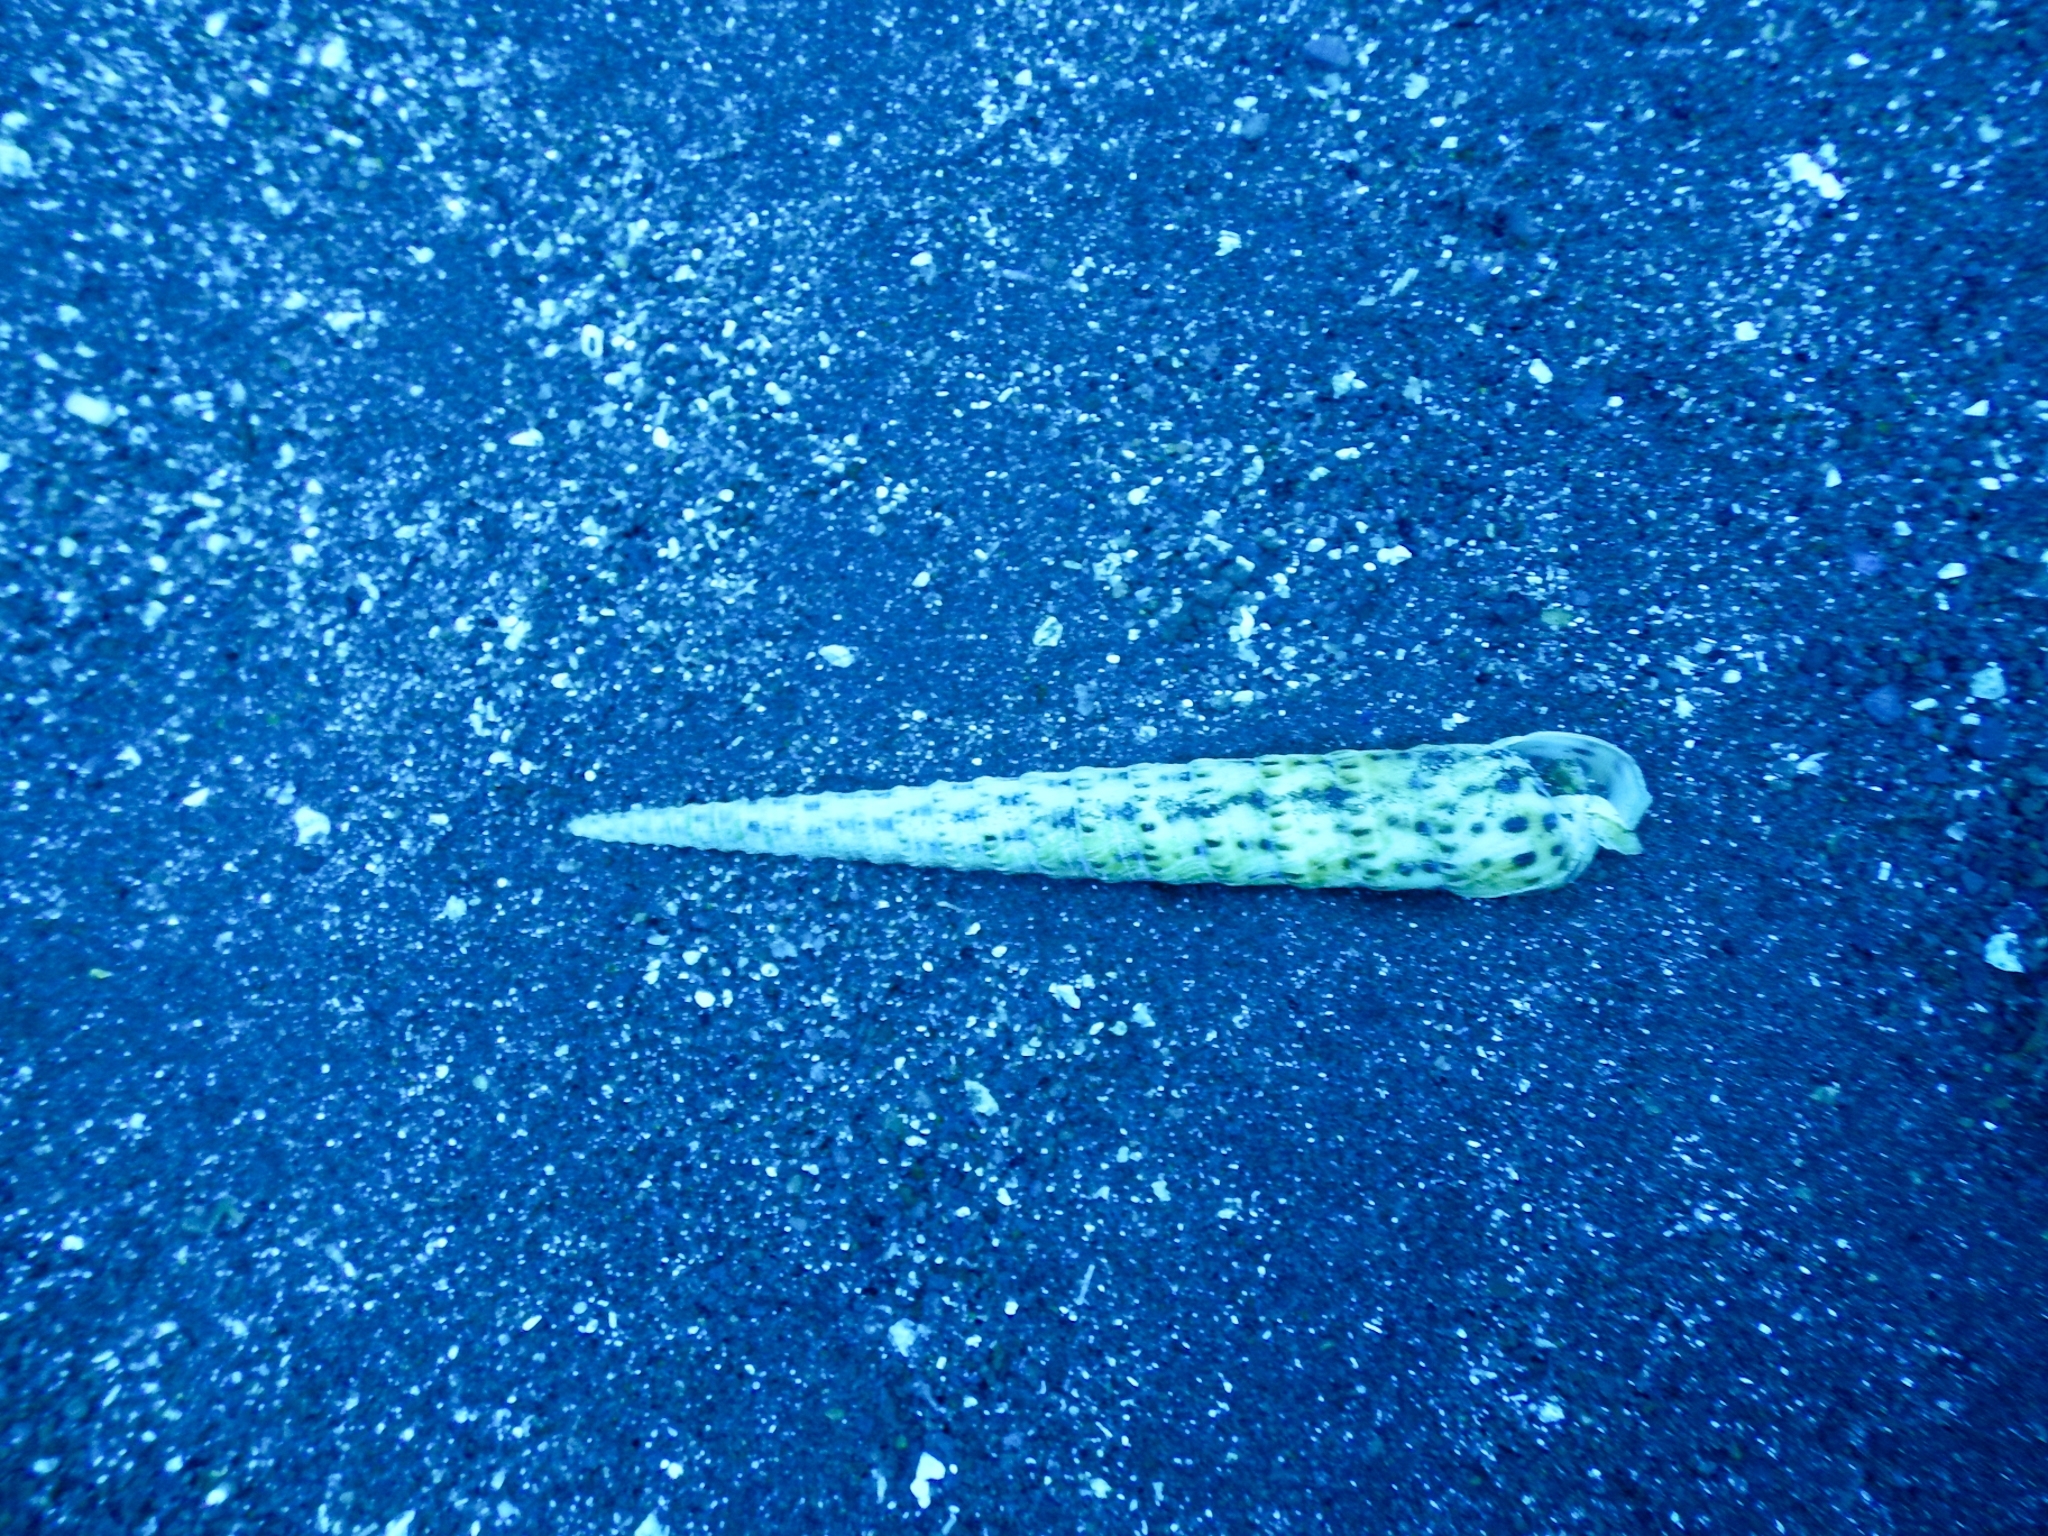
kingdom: Animalia
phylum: Mollusca
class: Gastropoda
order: Neogastropoda
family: Terebridae
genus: Terebra
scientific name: Terebra corrugata
